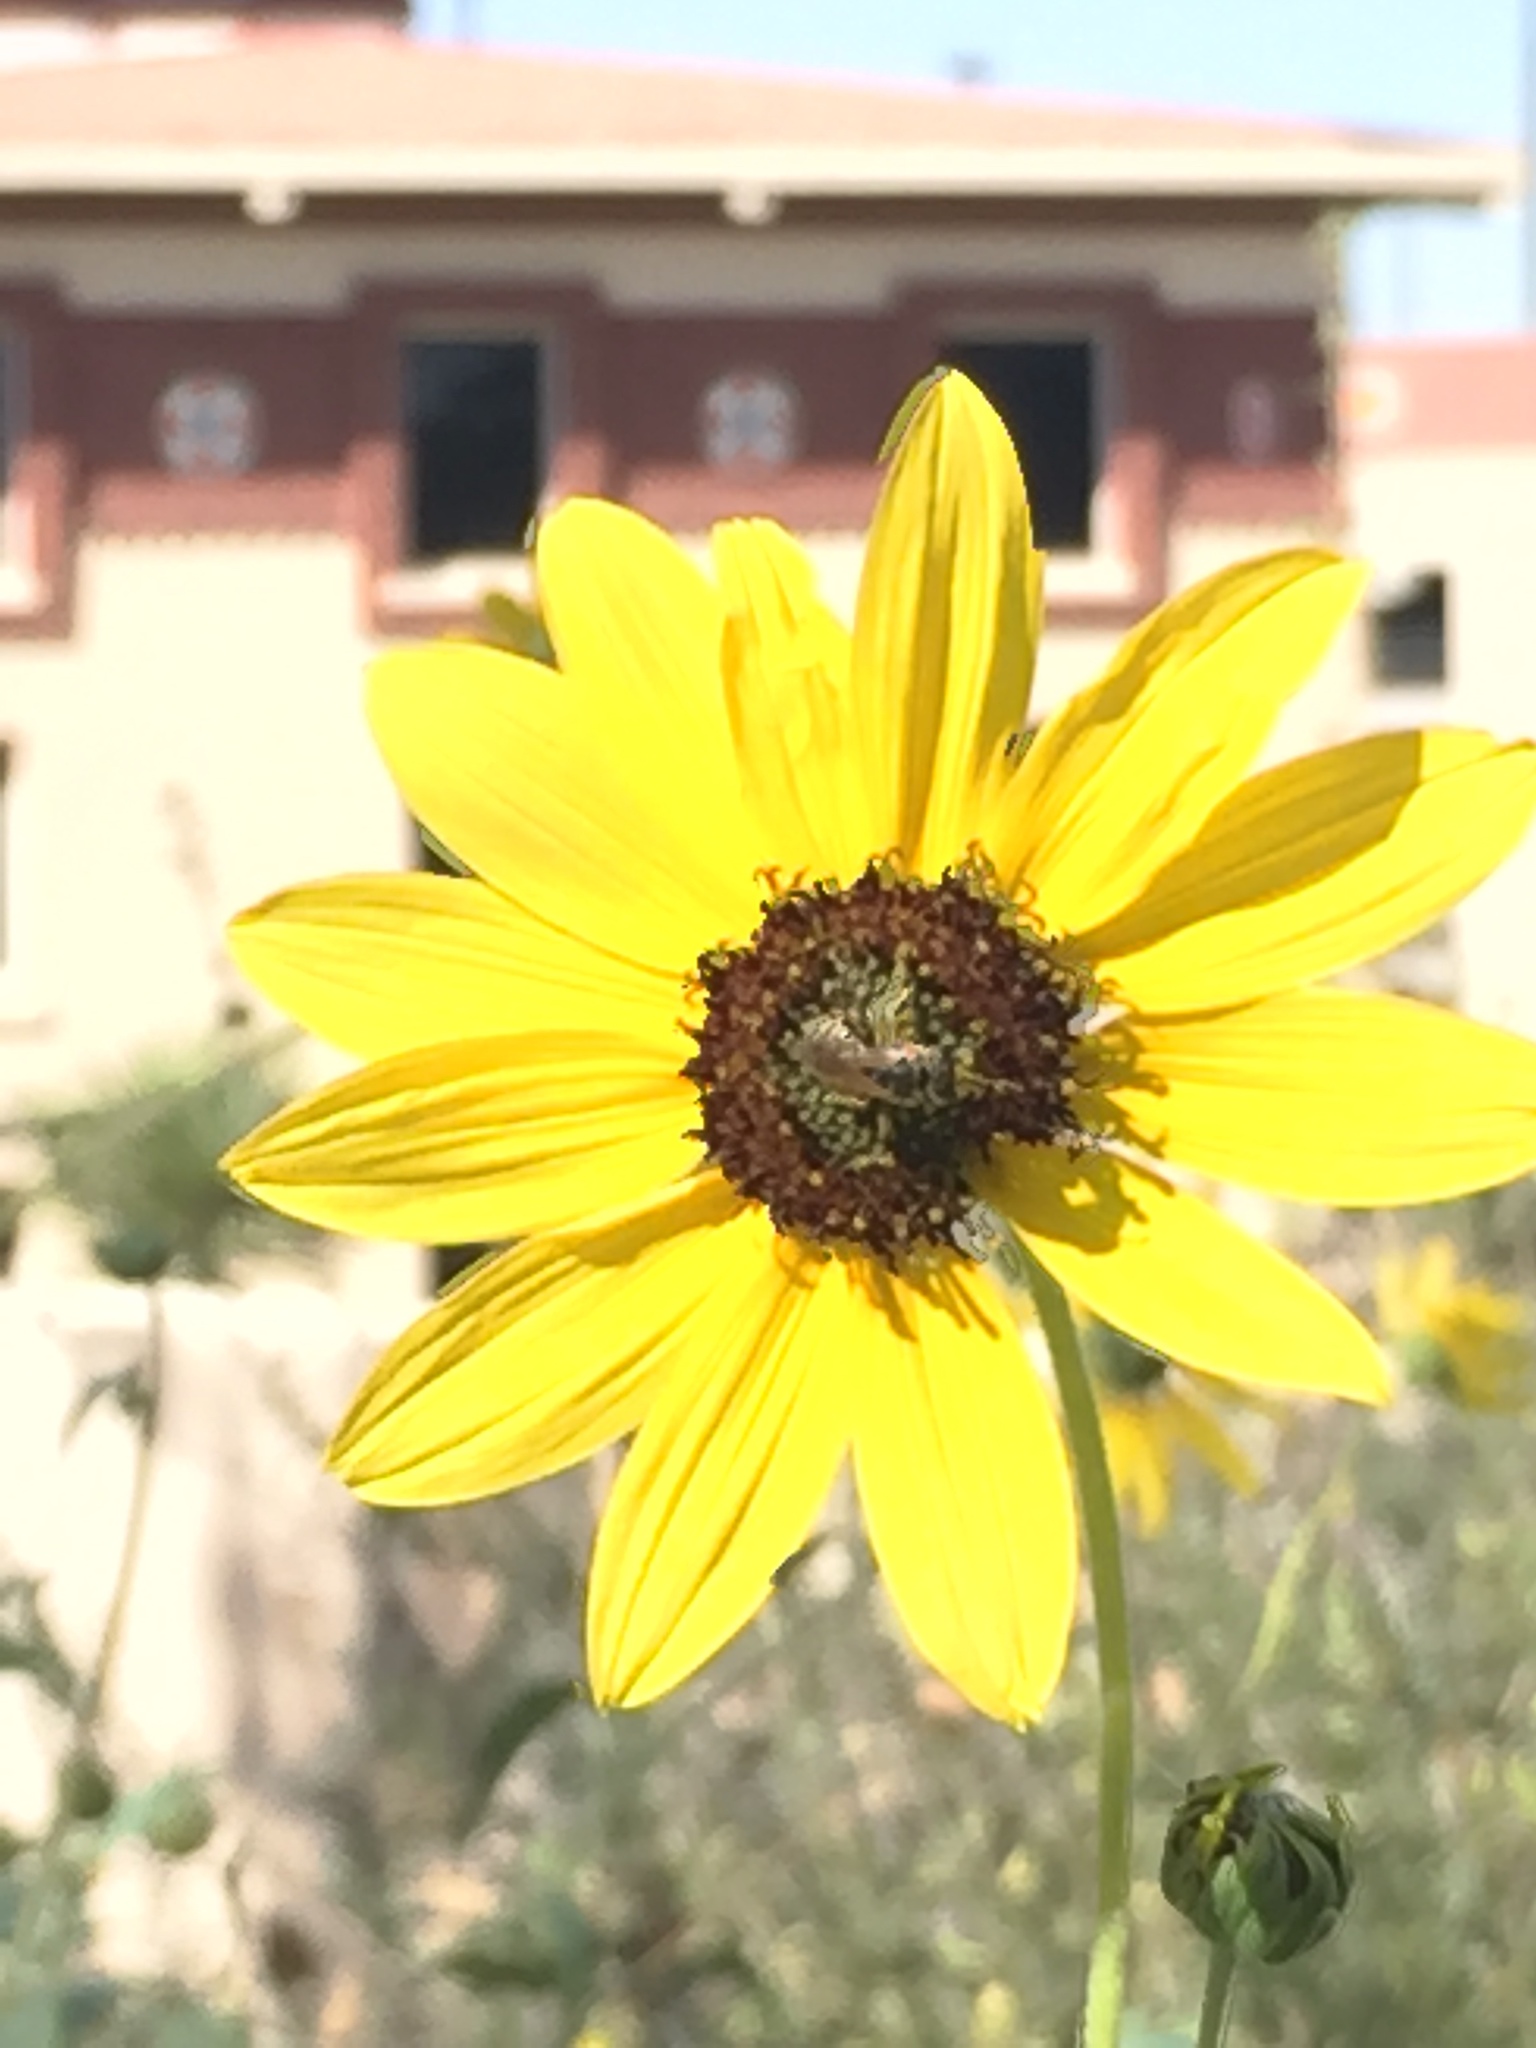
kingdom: Animalia
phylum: Arthropoda
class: Insecta
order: Hymenoptera
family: Halictidae
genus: Halictus
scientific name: Halictus ligatus
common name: Ligated furrow bee
